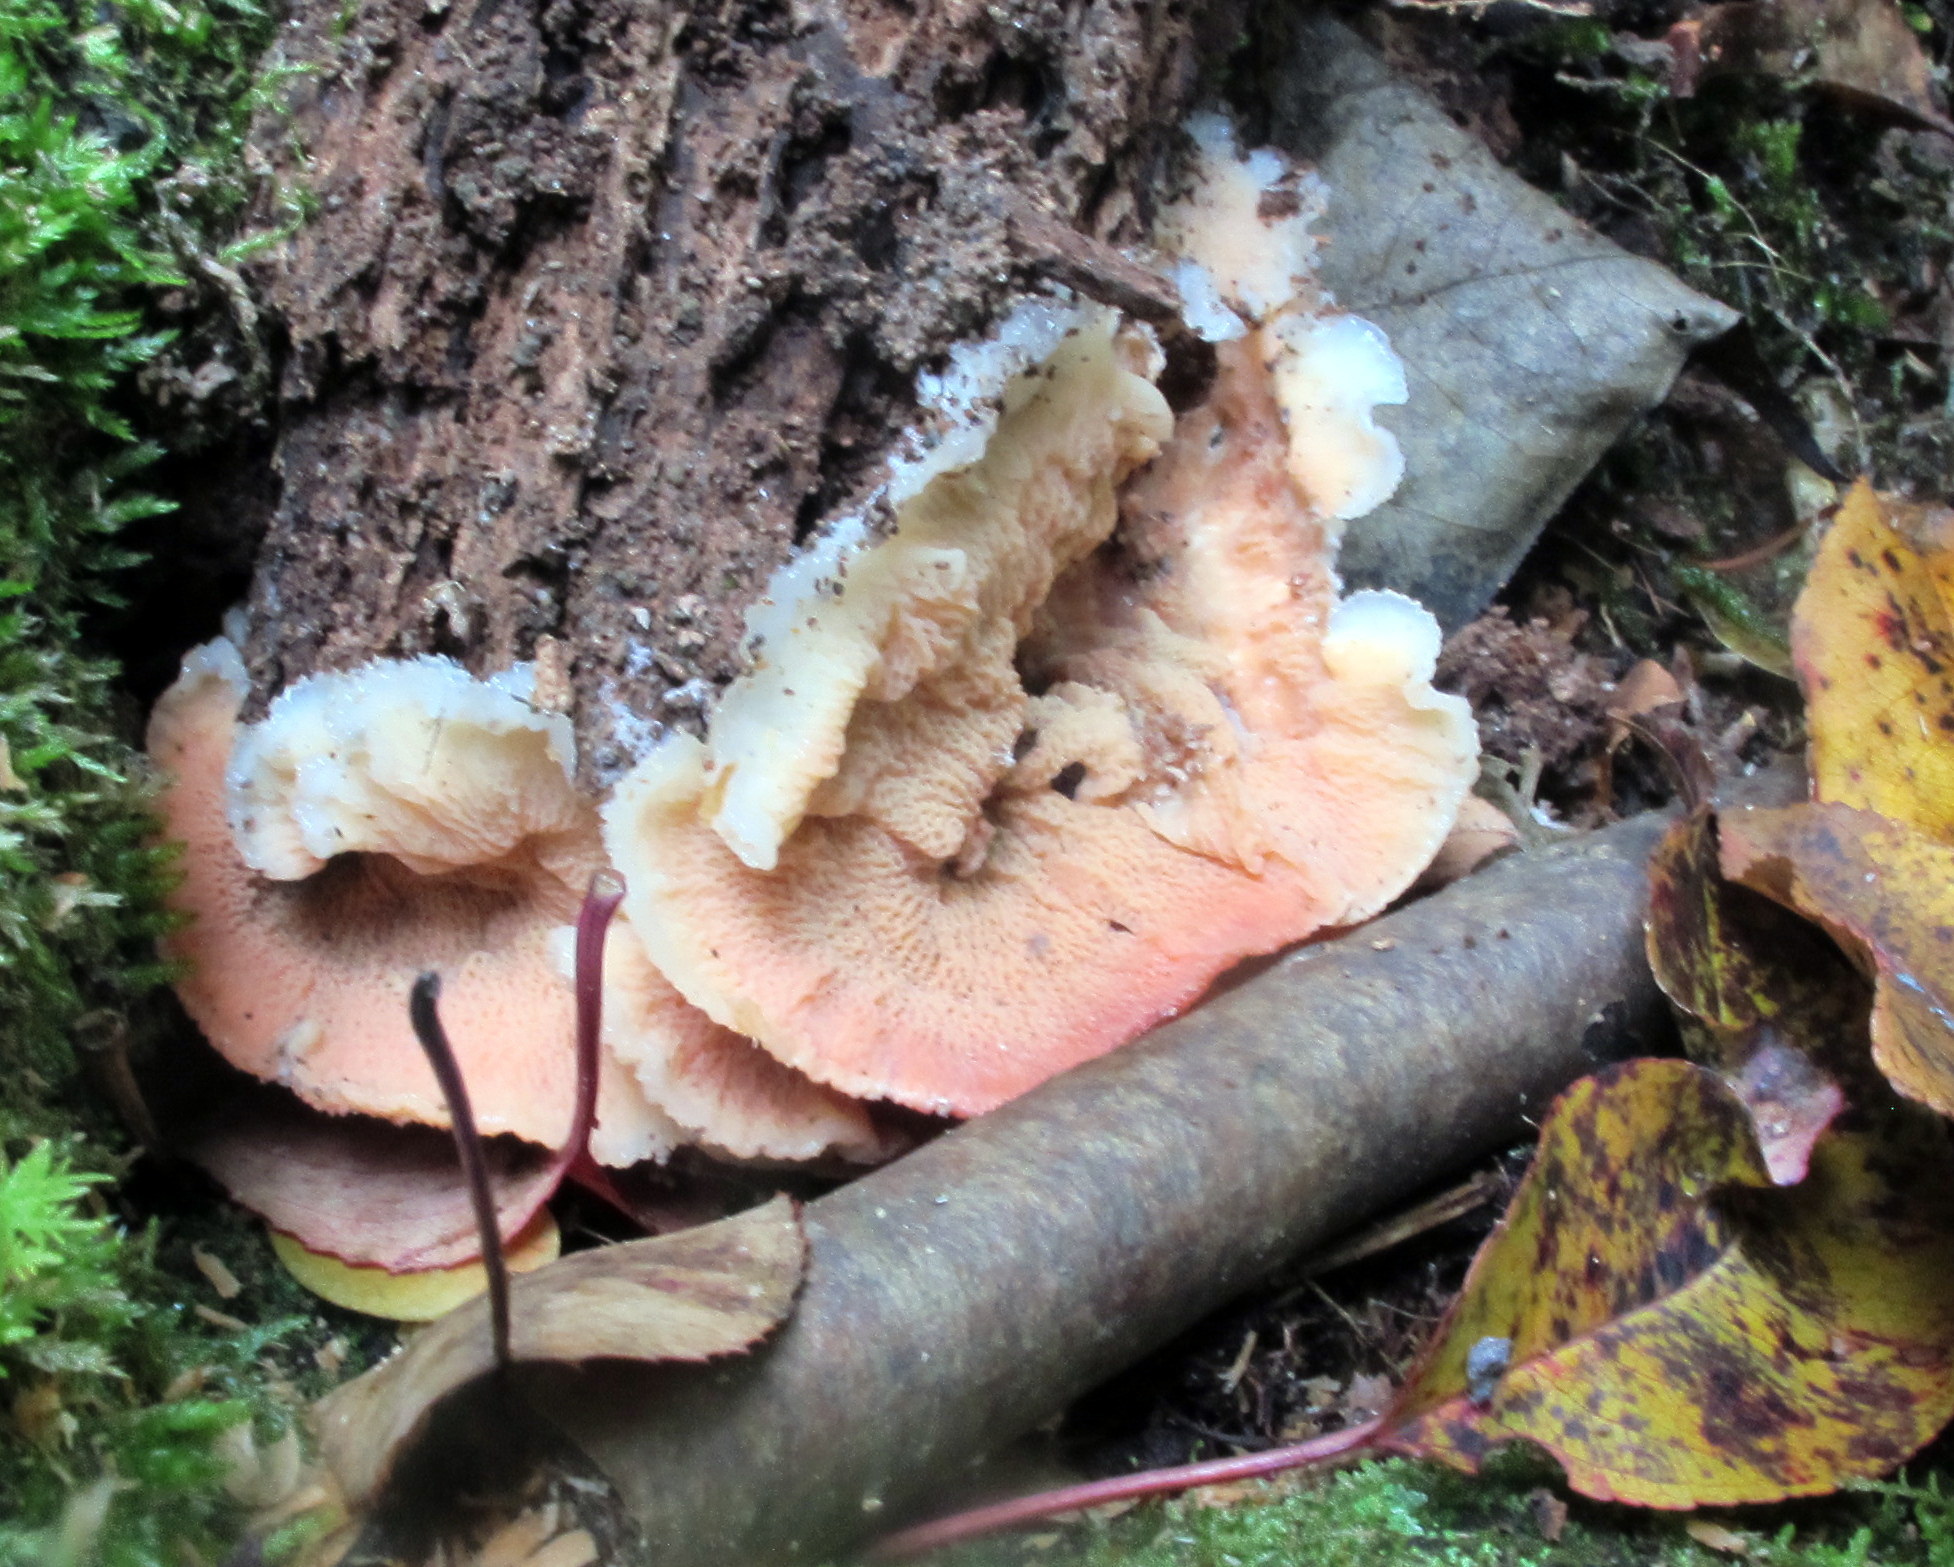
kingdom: Fungi
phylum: Basidiomycota
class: Agaricomycetes
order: Polyporales
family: Meruliaceae
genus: Phlebia
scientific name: Phlebia tremellosa
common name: Jelly rot
